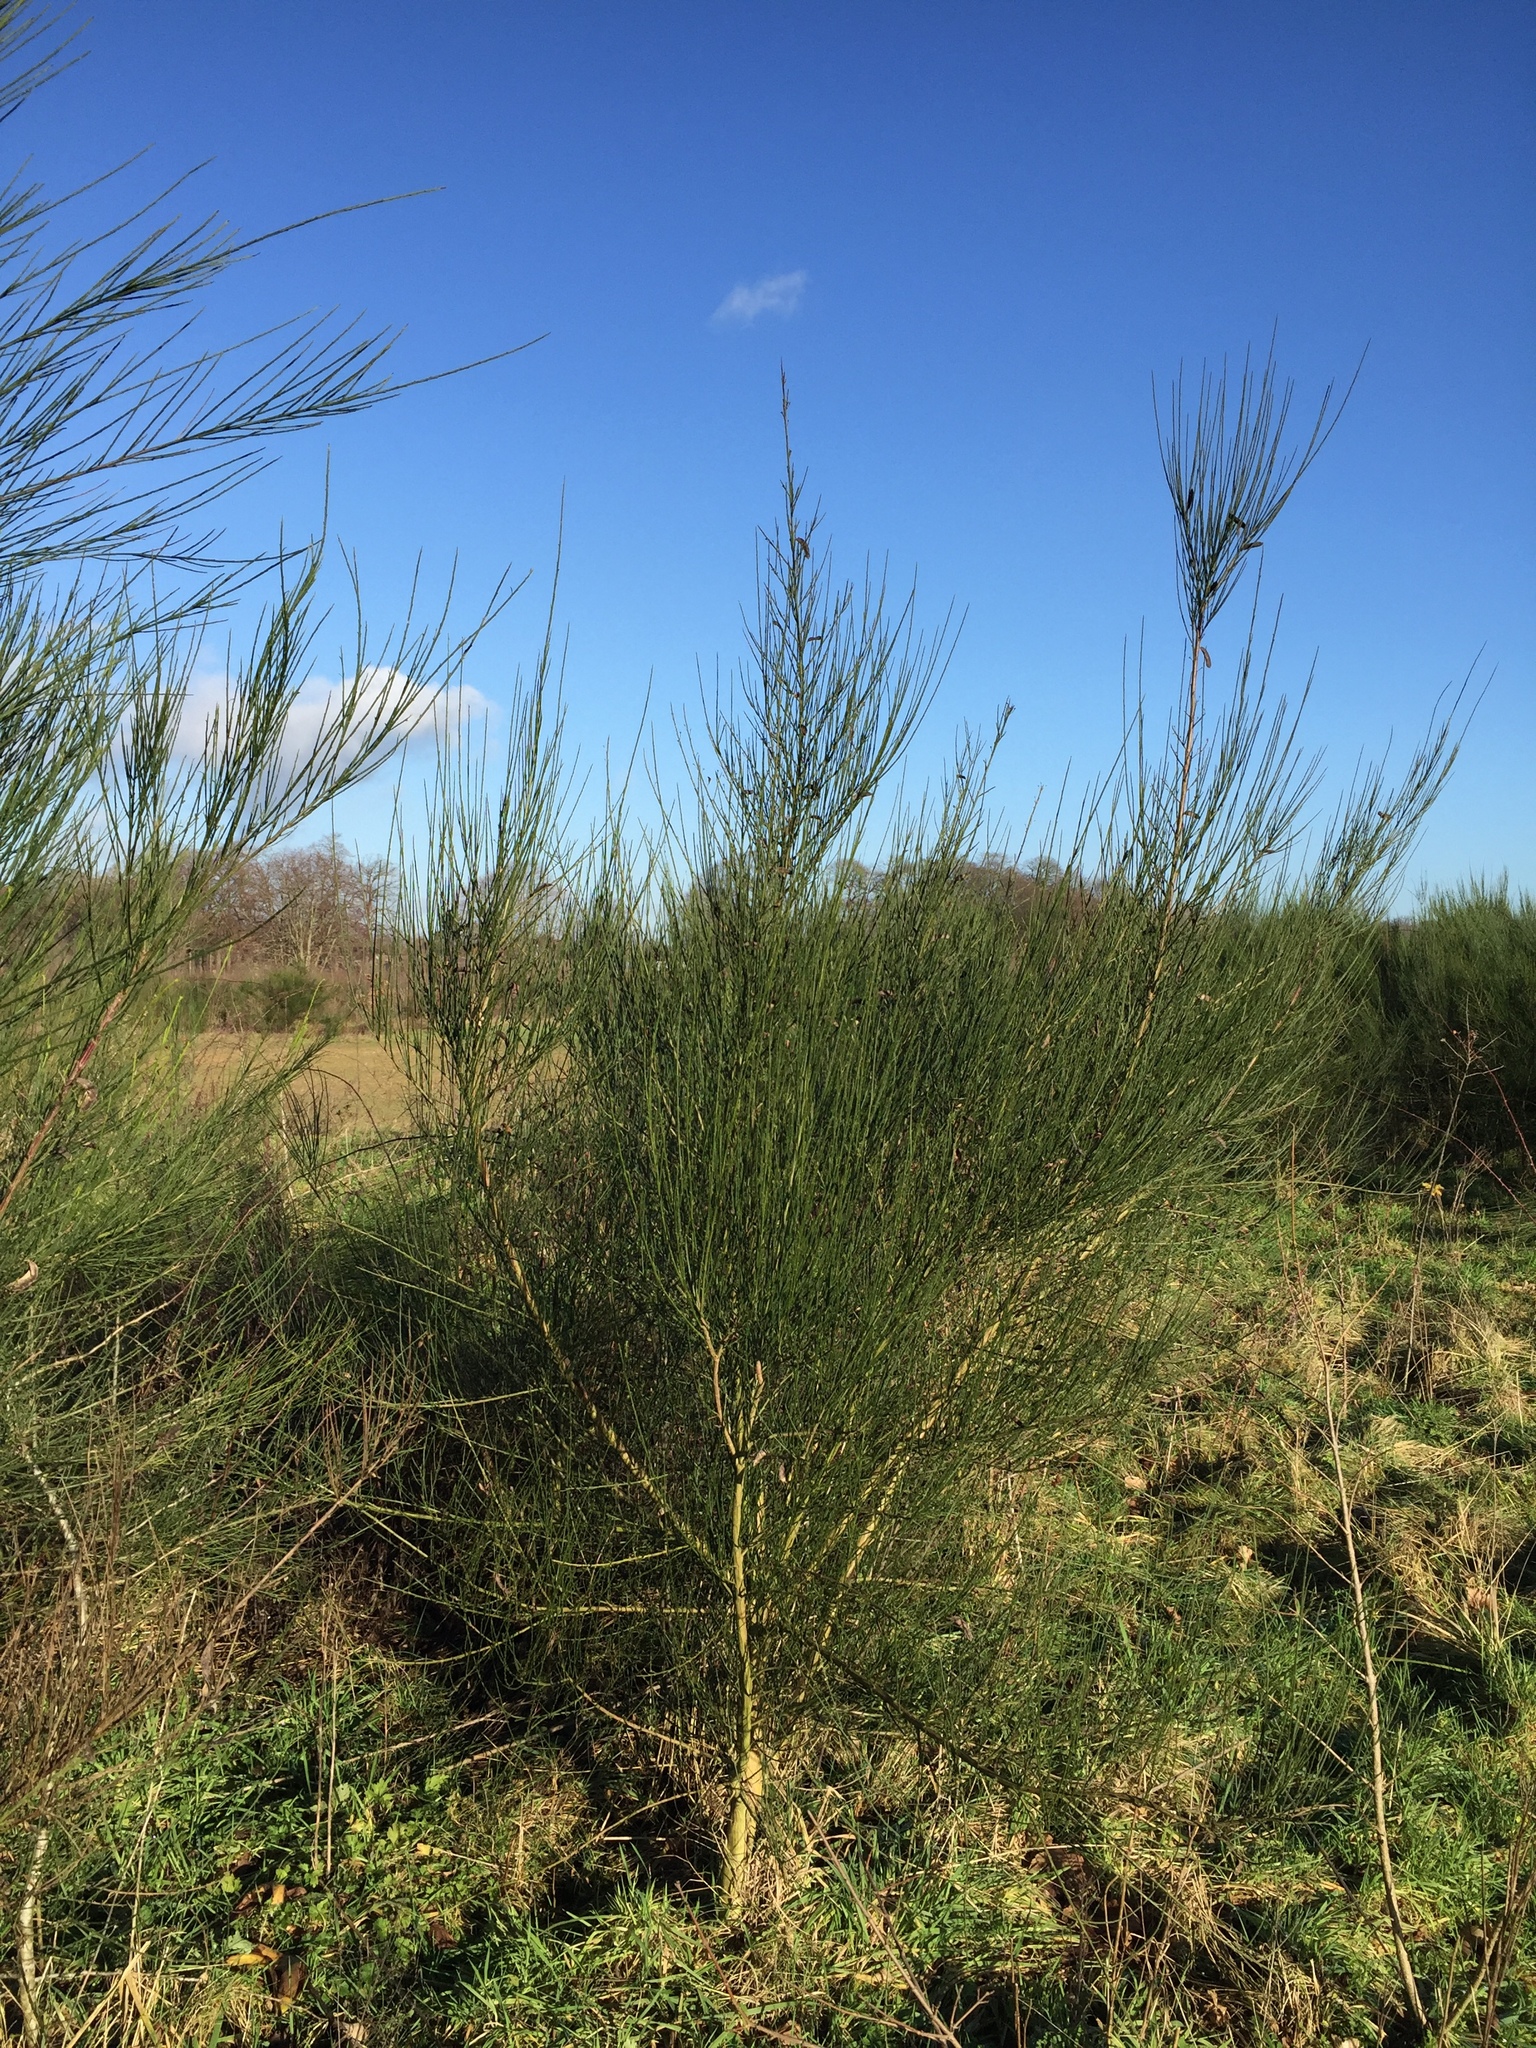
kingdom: Plantae
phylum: Tracheophyta
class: Magnoliopsida
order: Fabales
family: Fabaceae
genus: Cytisus
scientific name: Cytisus scoparius
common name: Scotch broom
